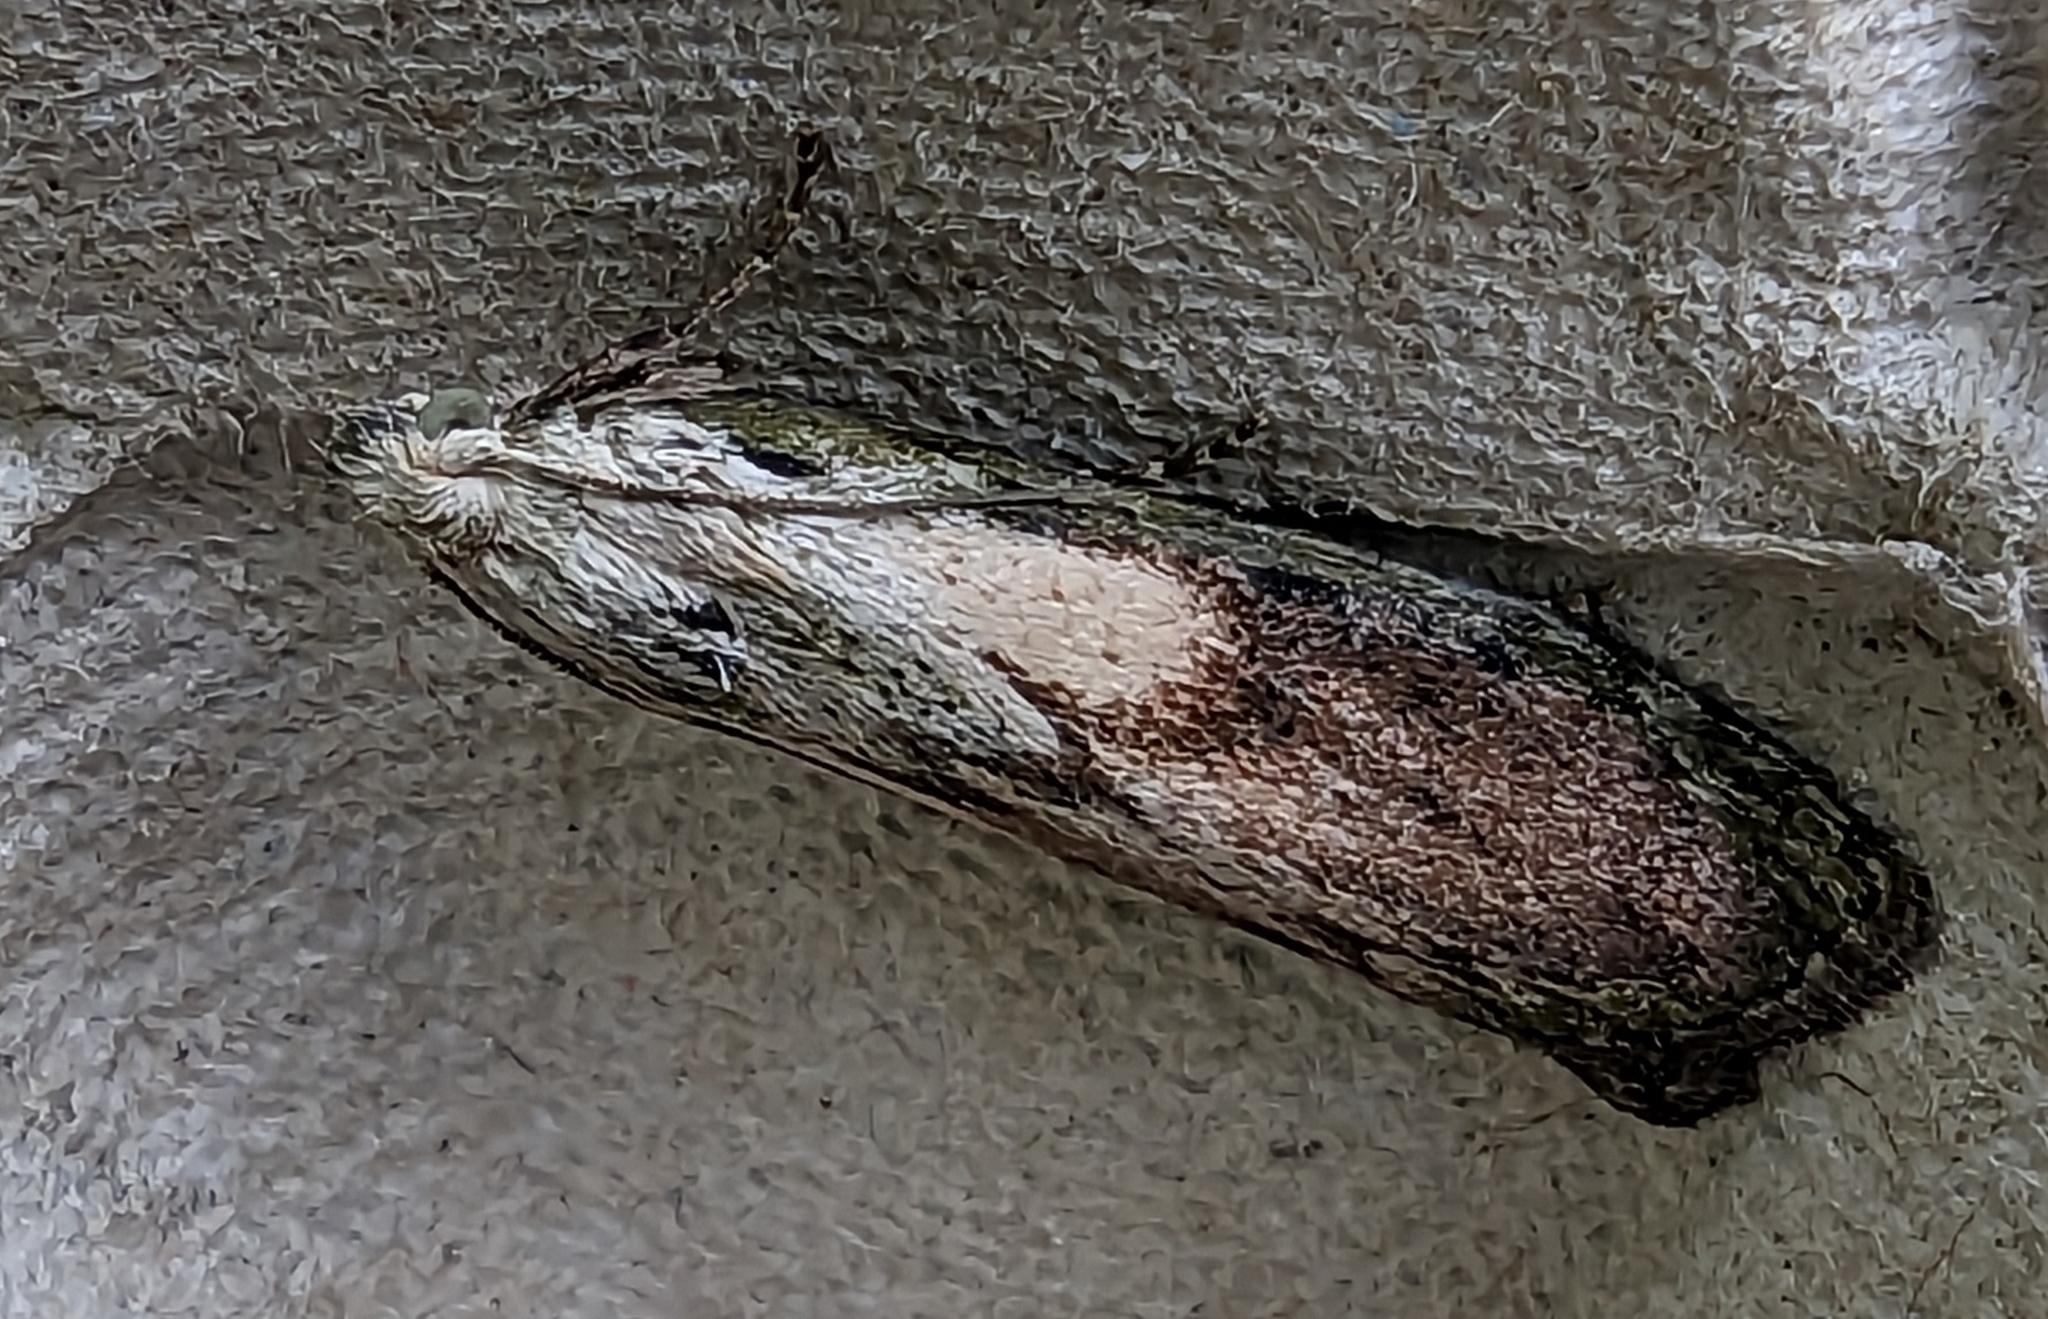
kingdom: Animalia
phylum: Arthropoda
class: Insecta
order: Lepidoptera
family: Pyralidae
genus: Aphomia
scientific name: Aphomia sociella
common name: Bee moth
